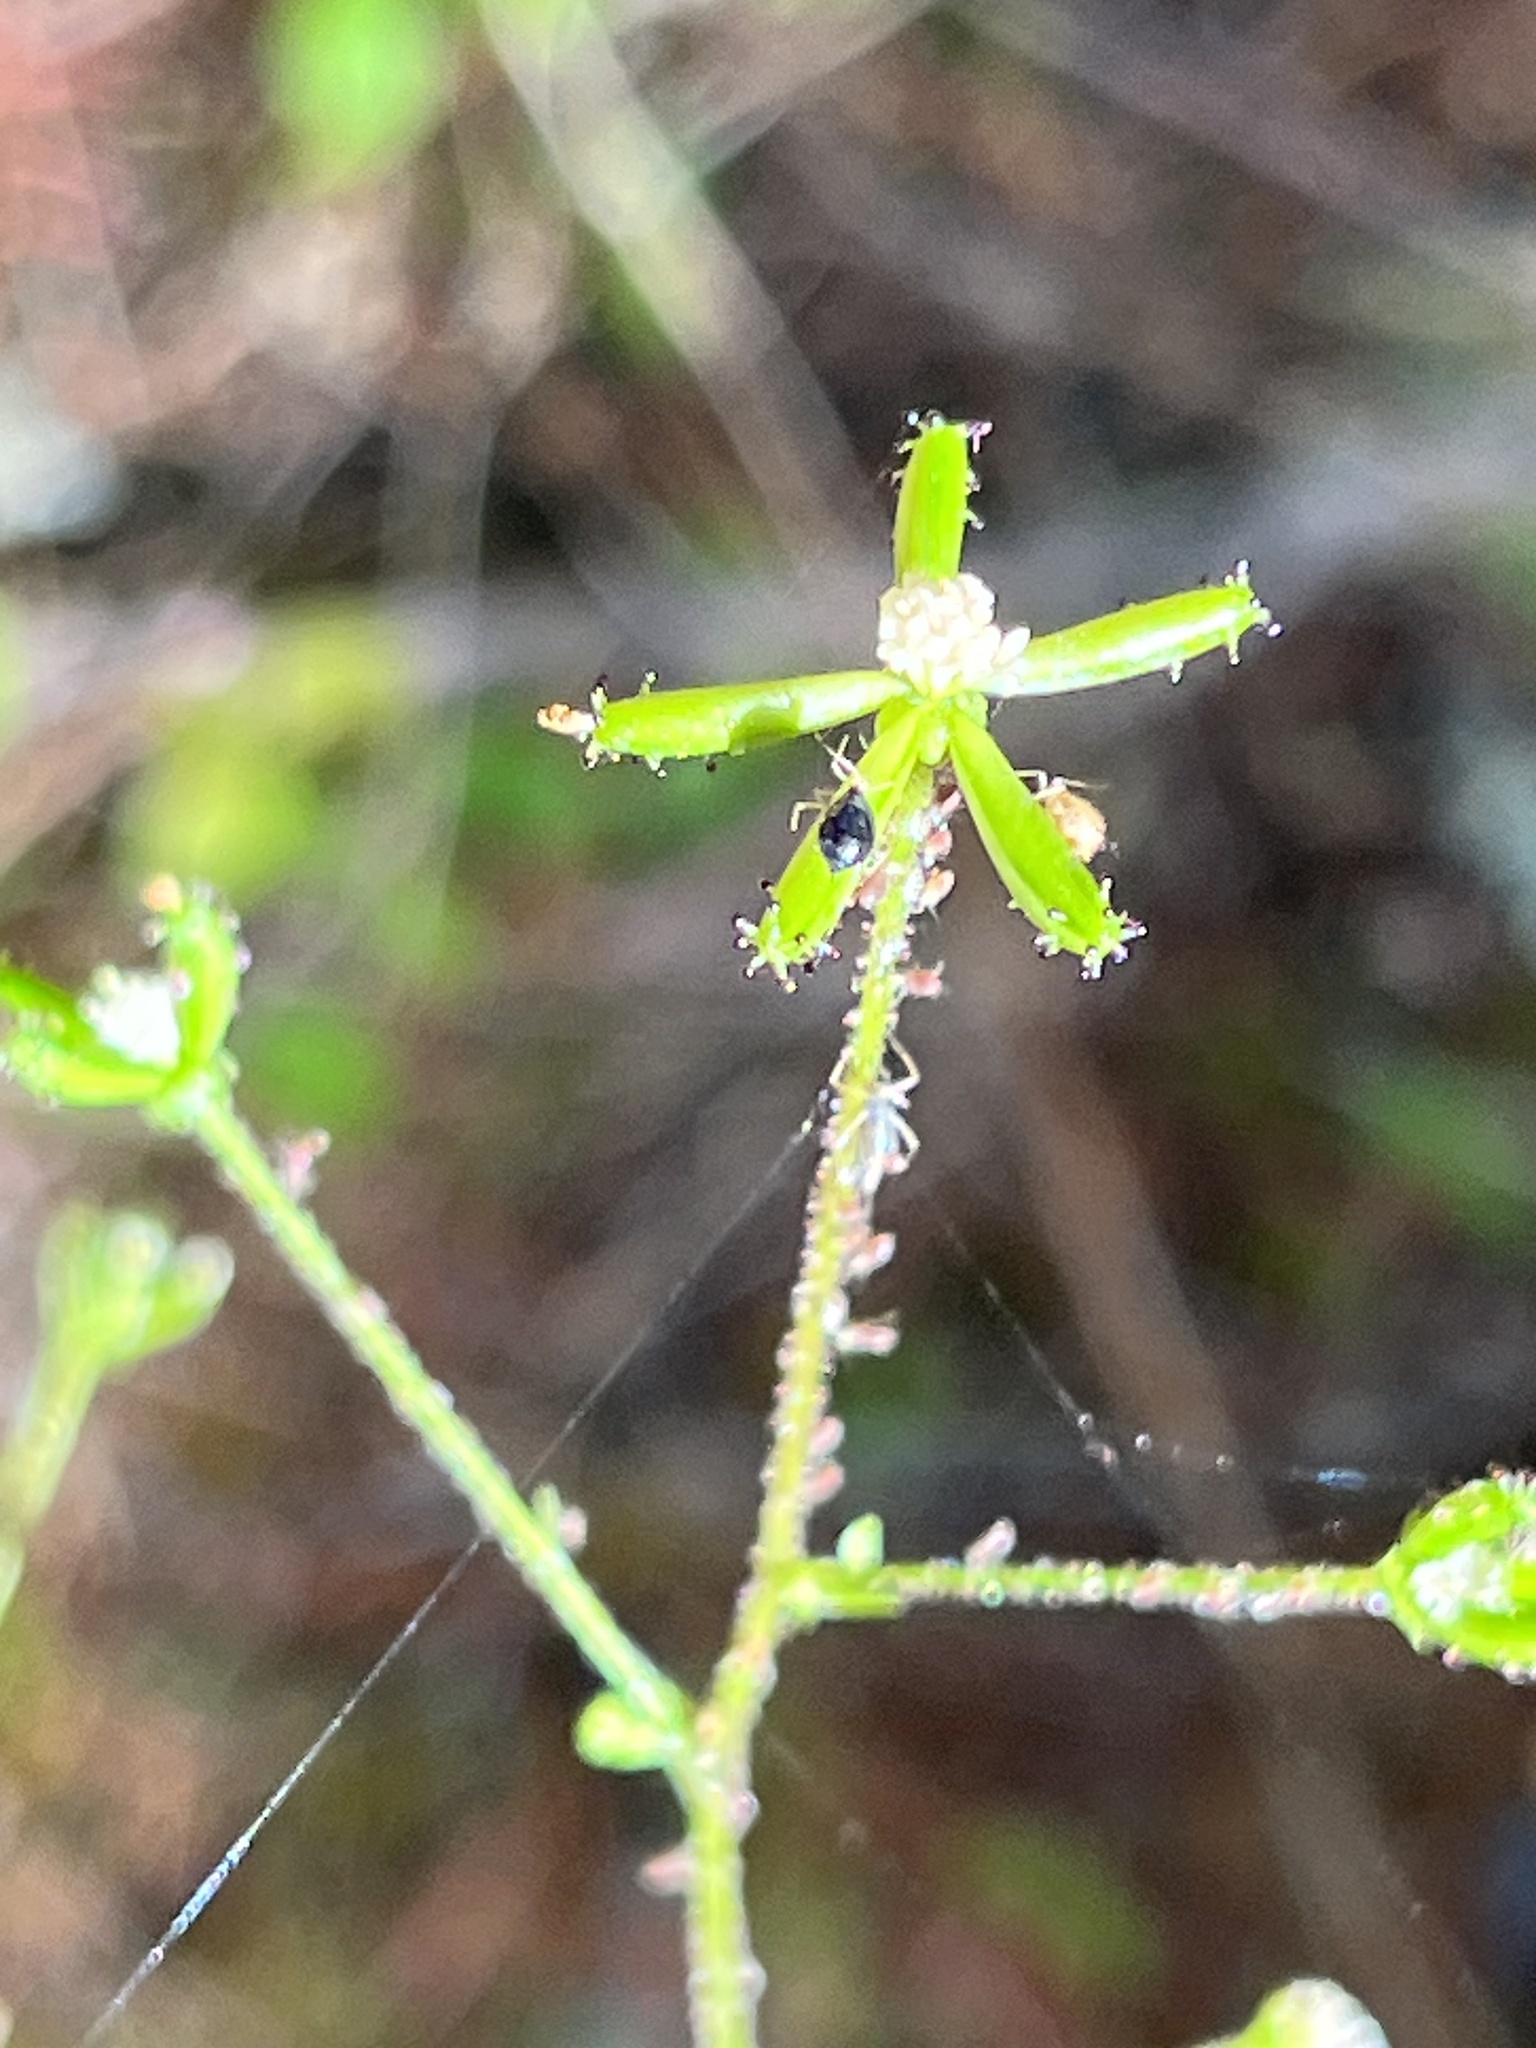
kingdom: Plantae
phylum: Tracheophyta
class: Magnoliopsida
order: Asterales
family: Asteraceae
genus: Adenocaulon
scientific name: Adenocaulon bicolor
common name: Trailplant
